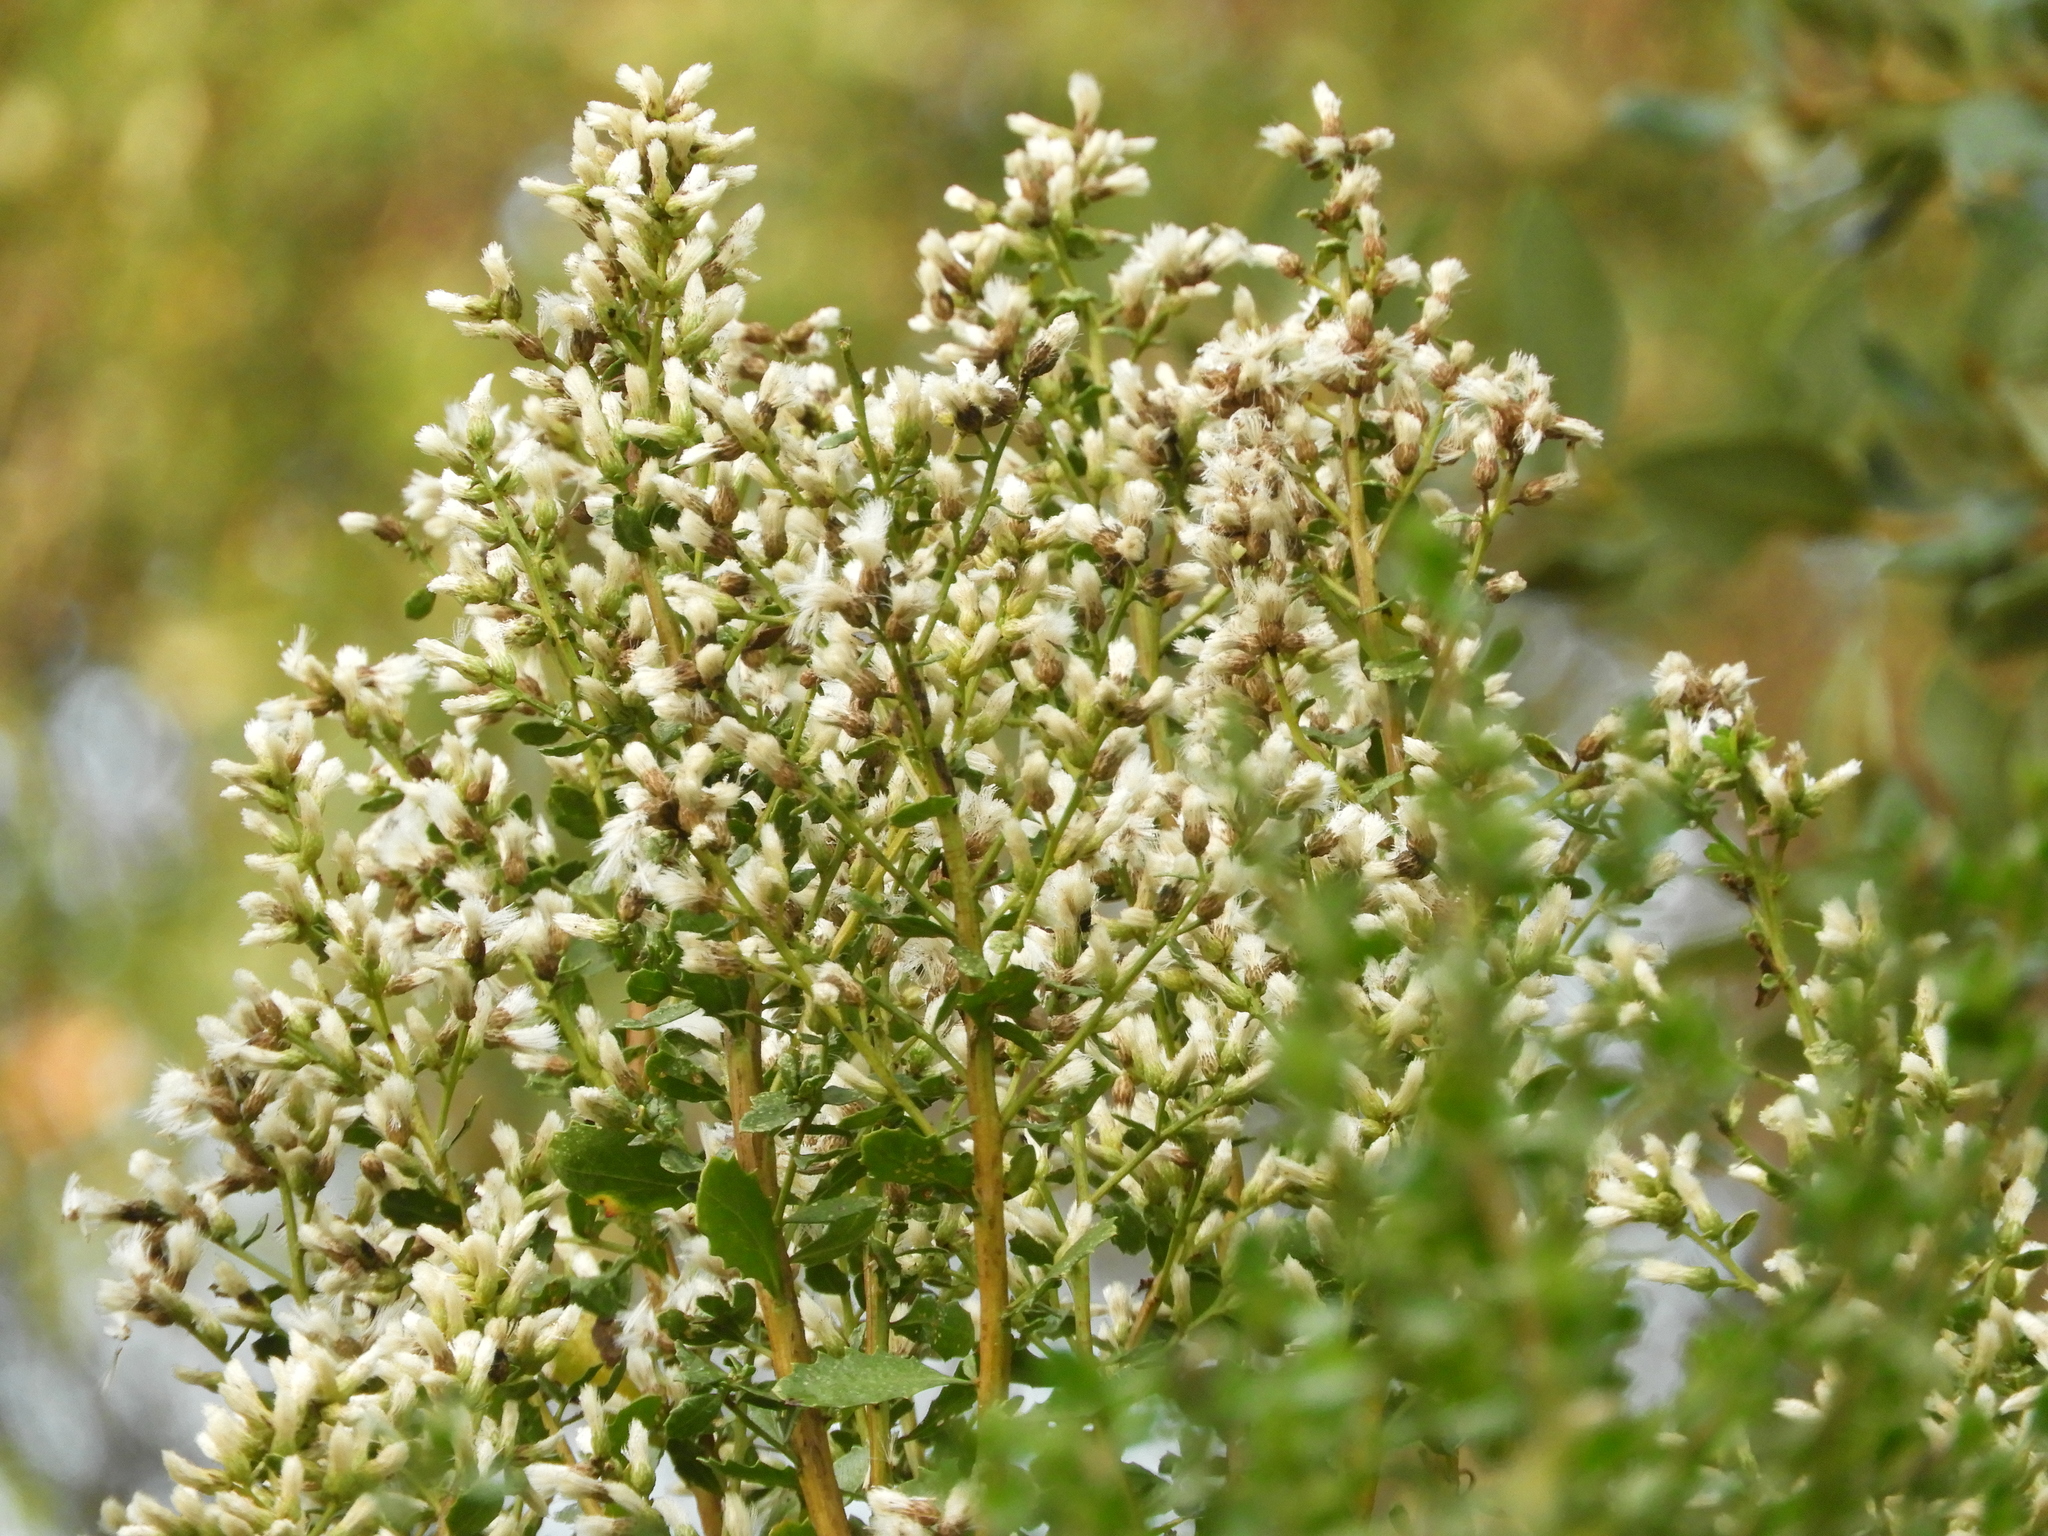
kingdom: Plantae
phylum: Tracheophyta
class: Magnoliopsida
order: Asterales
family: Asteraceae
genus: Baccharis
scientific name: Baccharis pilularis
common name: Coyotebrush
